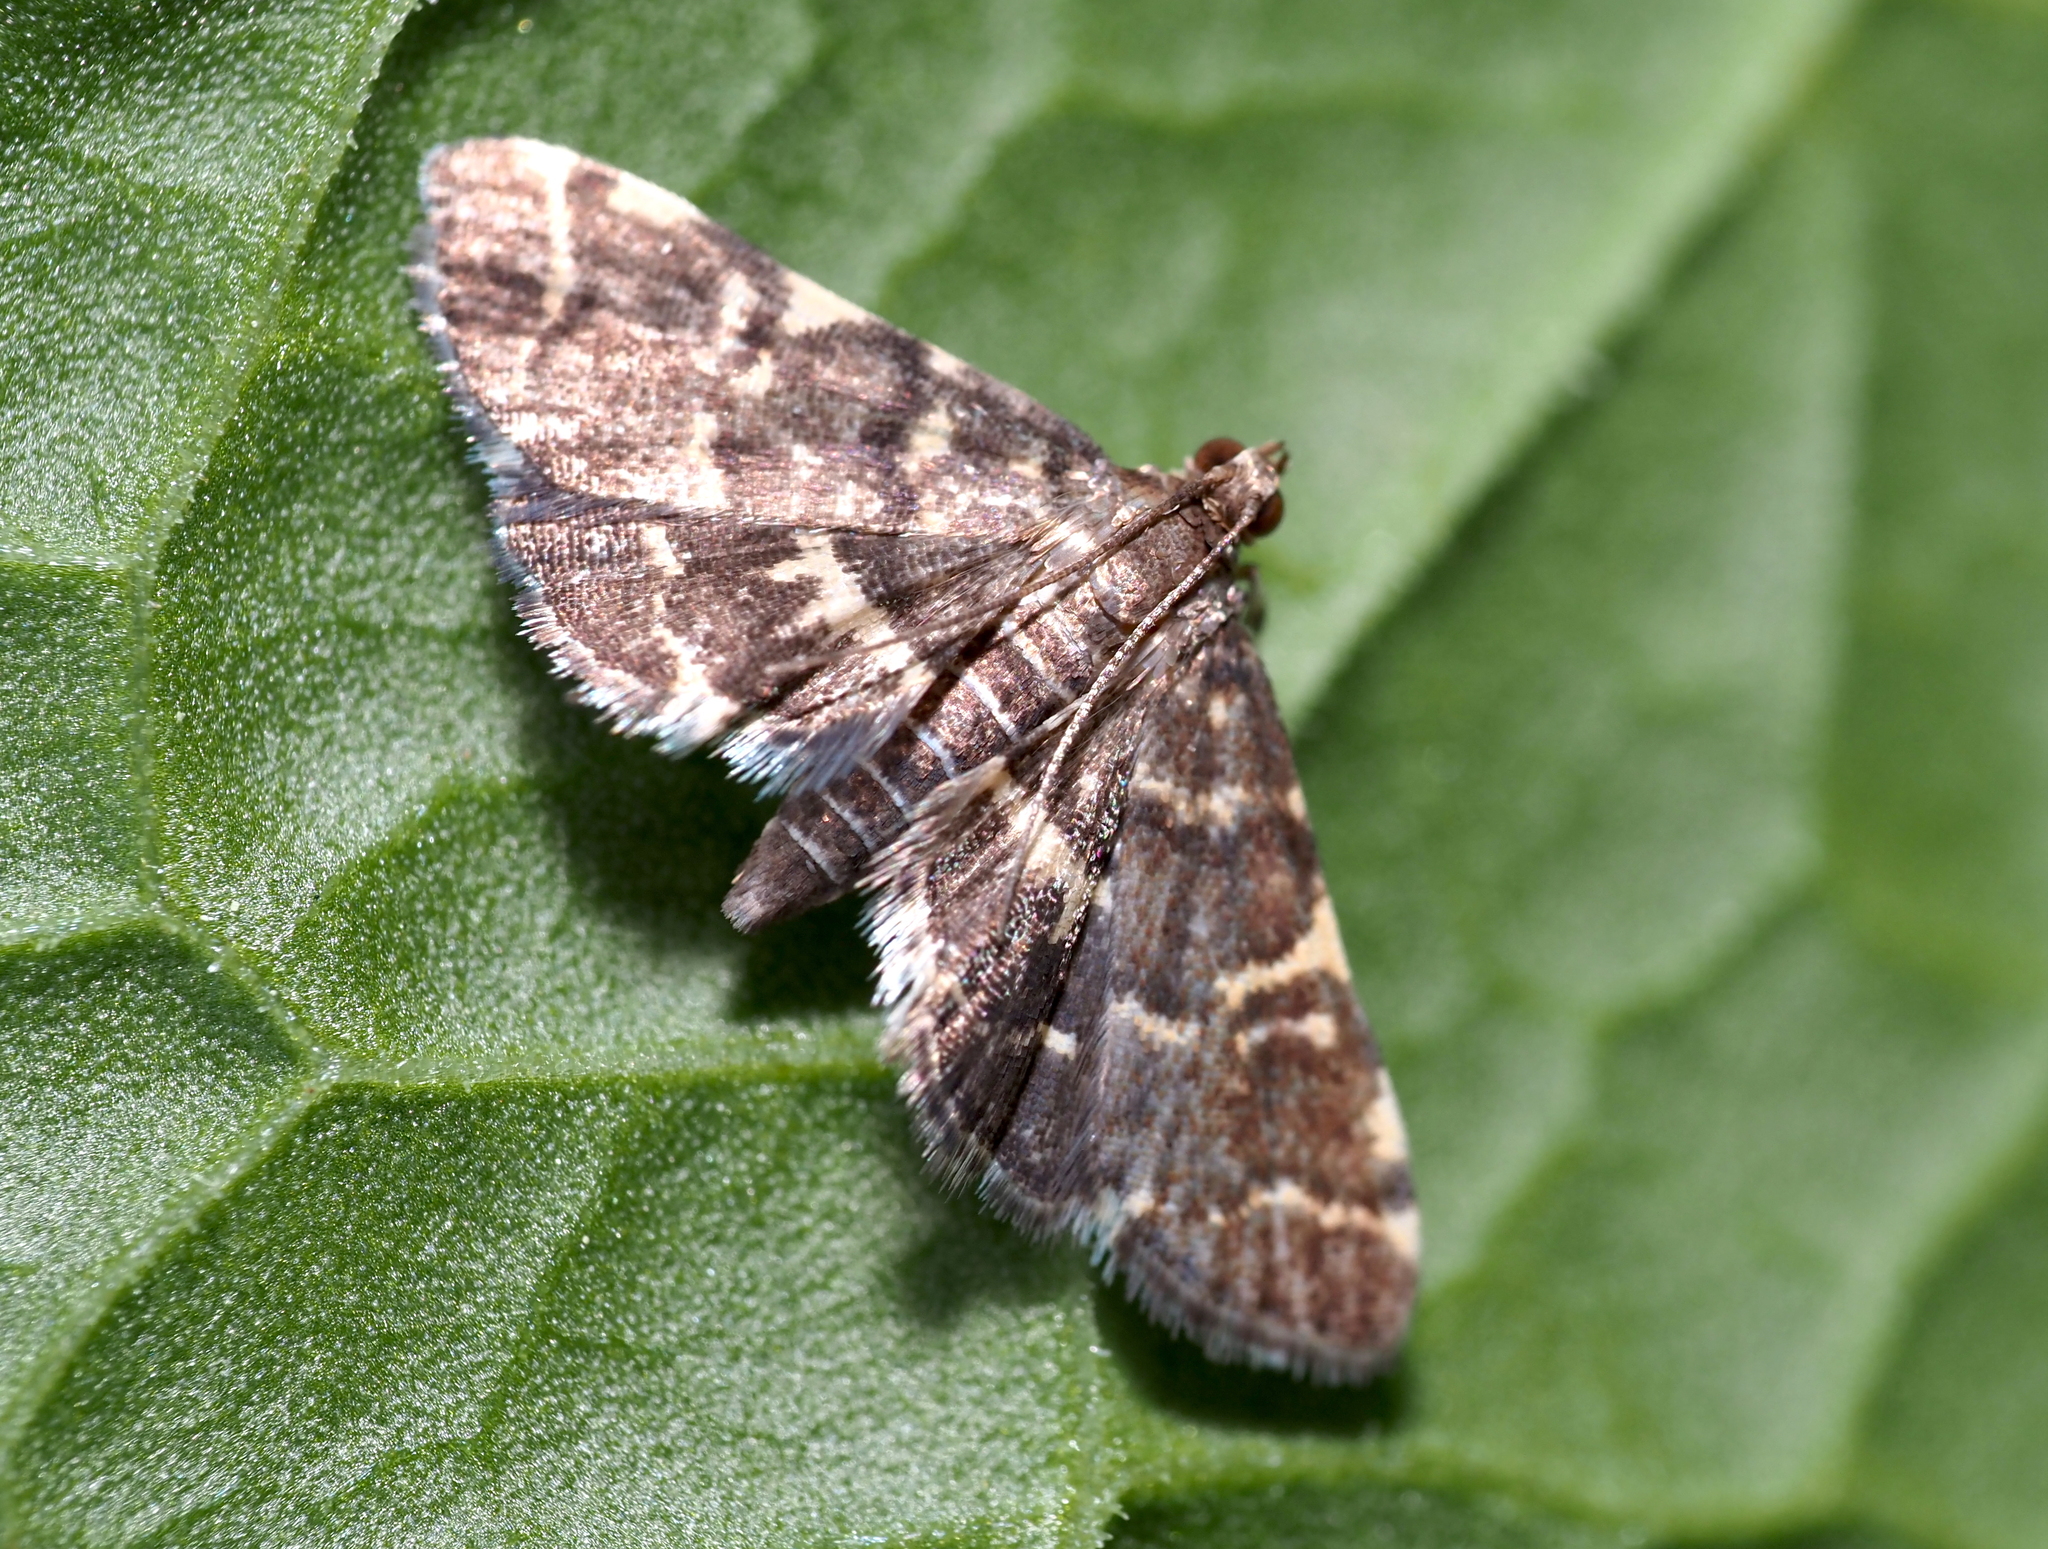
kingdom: Animalia
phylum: Arthropoda
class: Insecta
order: Lepidoptera
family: Crambidae
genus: Anageshna
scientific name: Anageshna primordialis
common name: Yellow-spotted webworm moth
